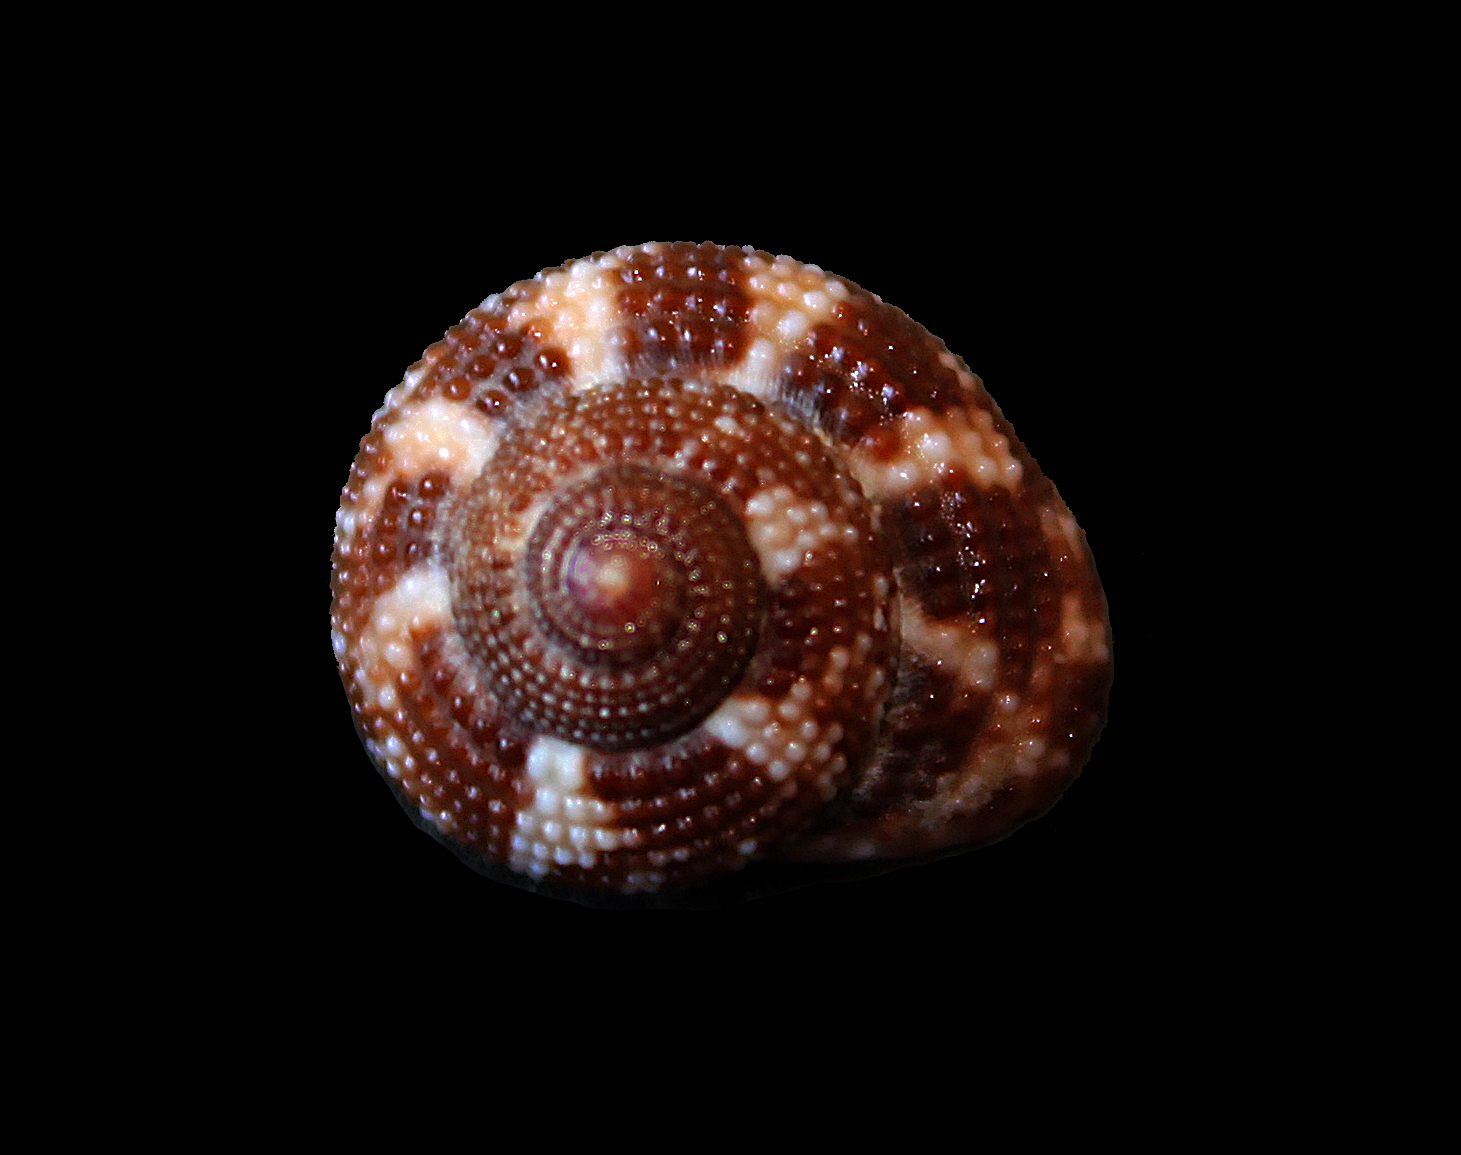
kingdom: Animalia
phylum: Mollusca
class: Gastropoda
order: Trochida
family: Trochidae
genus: Clanculus
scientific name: Clanculus corallinus
